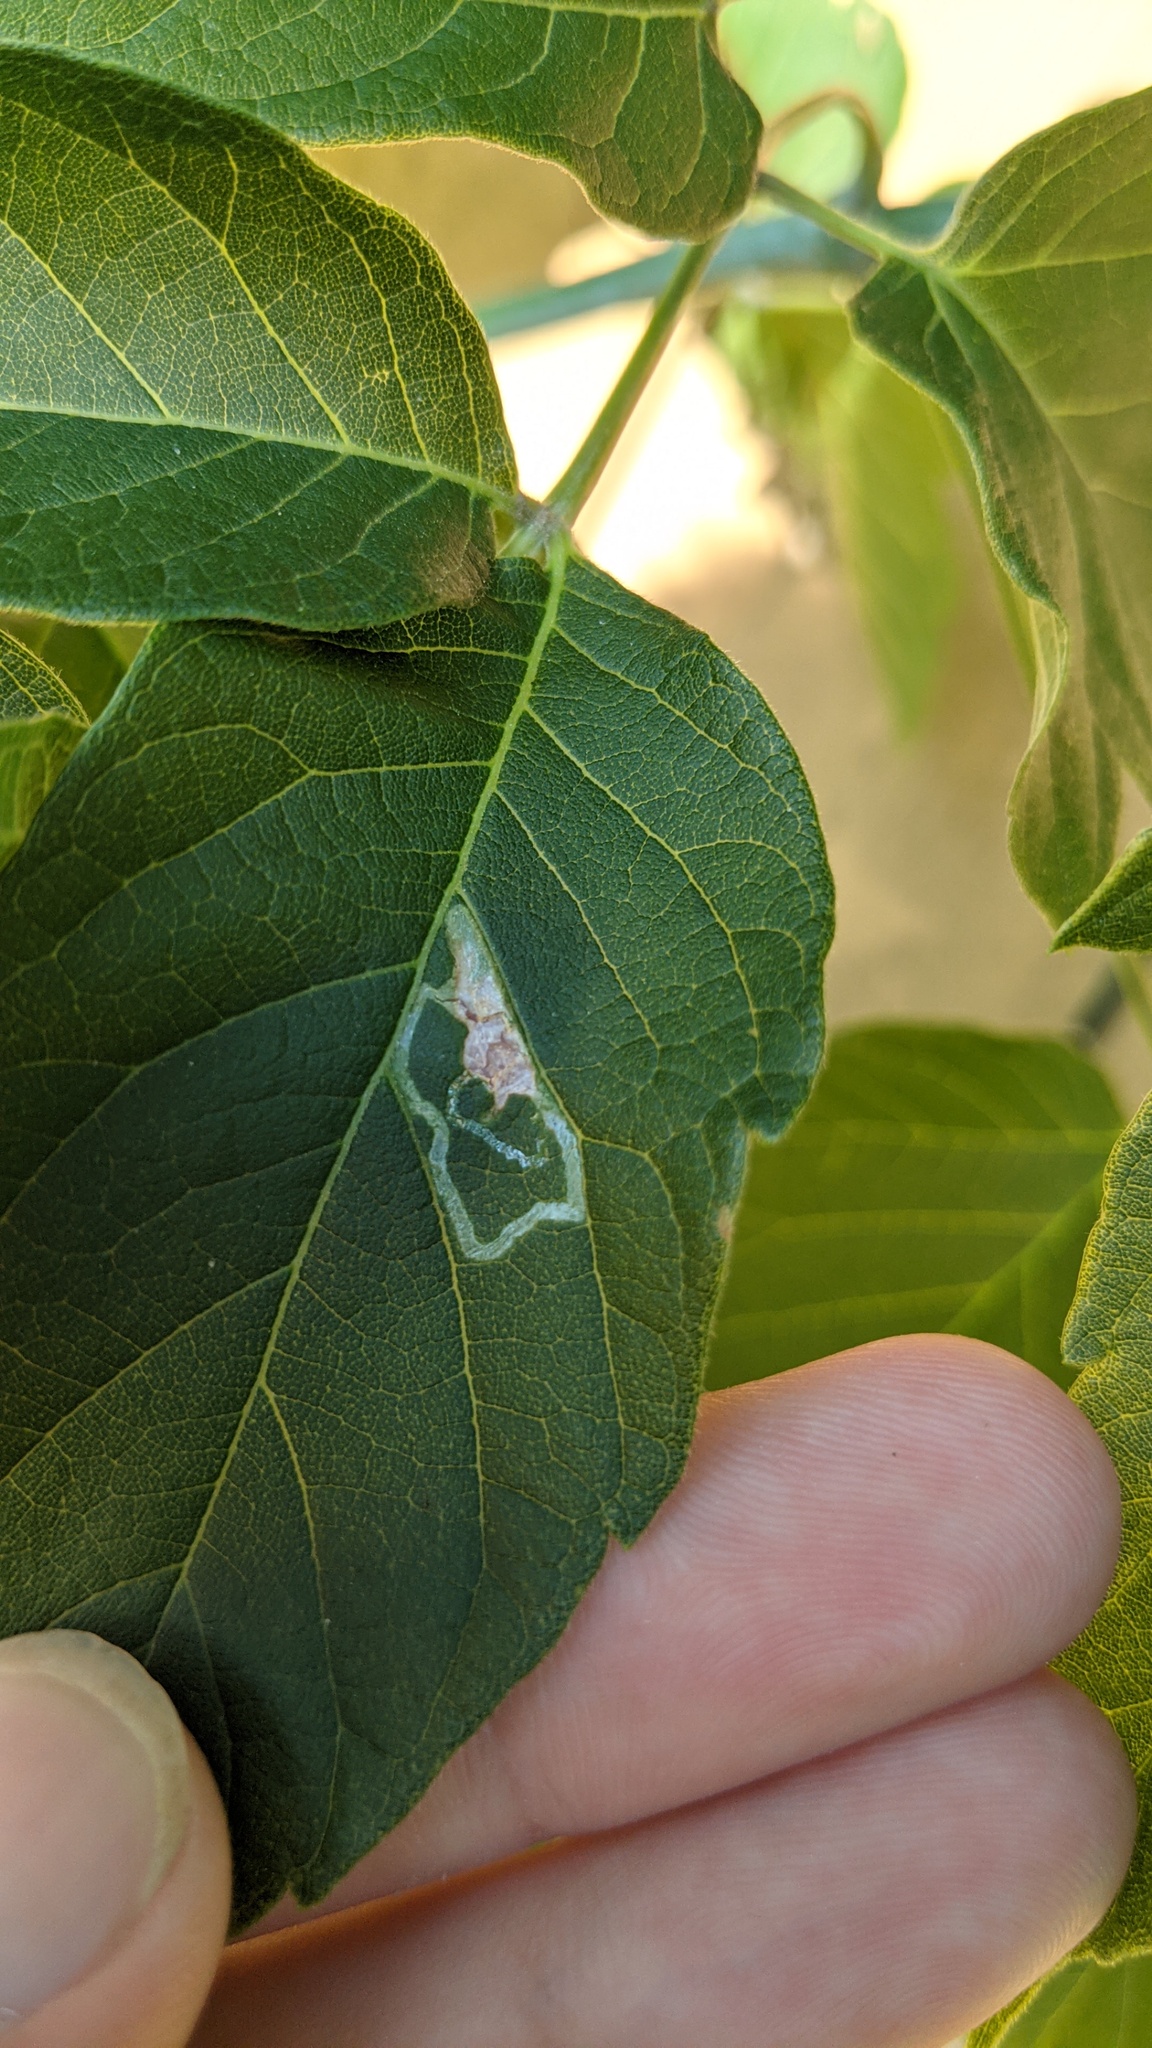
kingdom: Animalia
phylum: Arthropoda
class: Insecta
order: Lepidoptera
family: Gracillariidae
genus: Caloptilia
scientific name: Caloptilia negundella
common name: Leafminer
